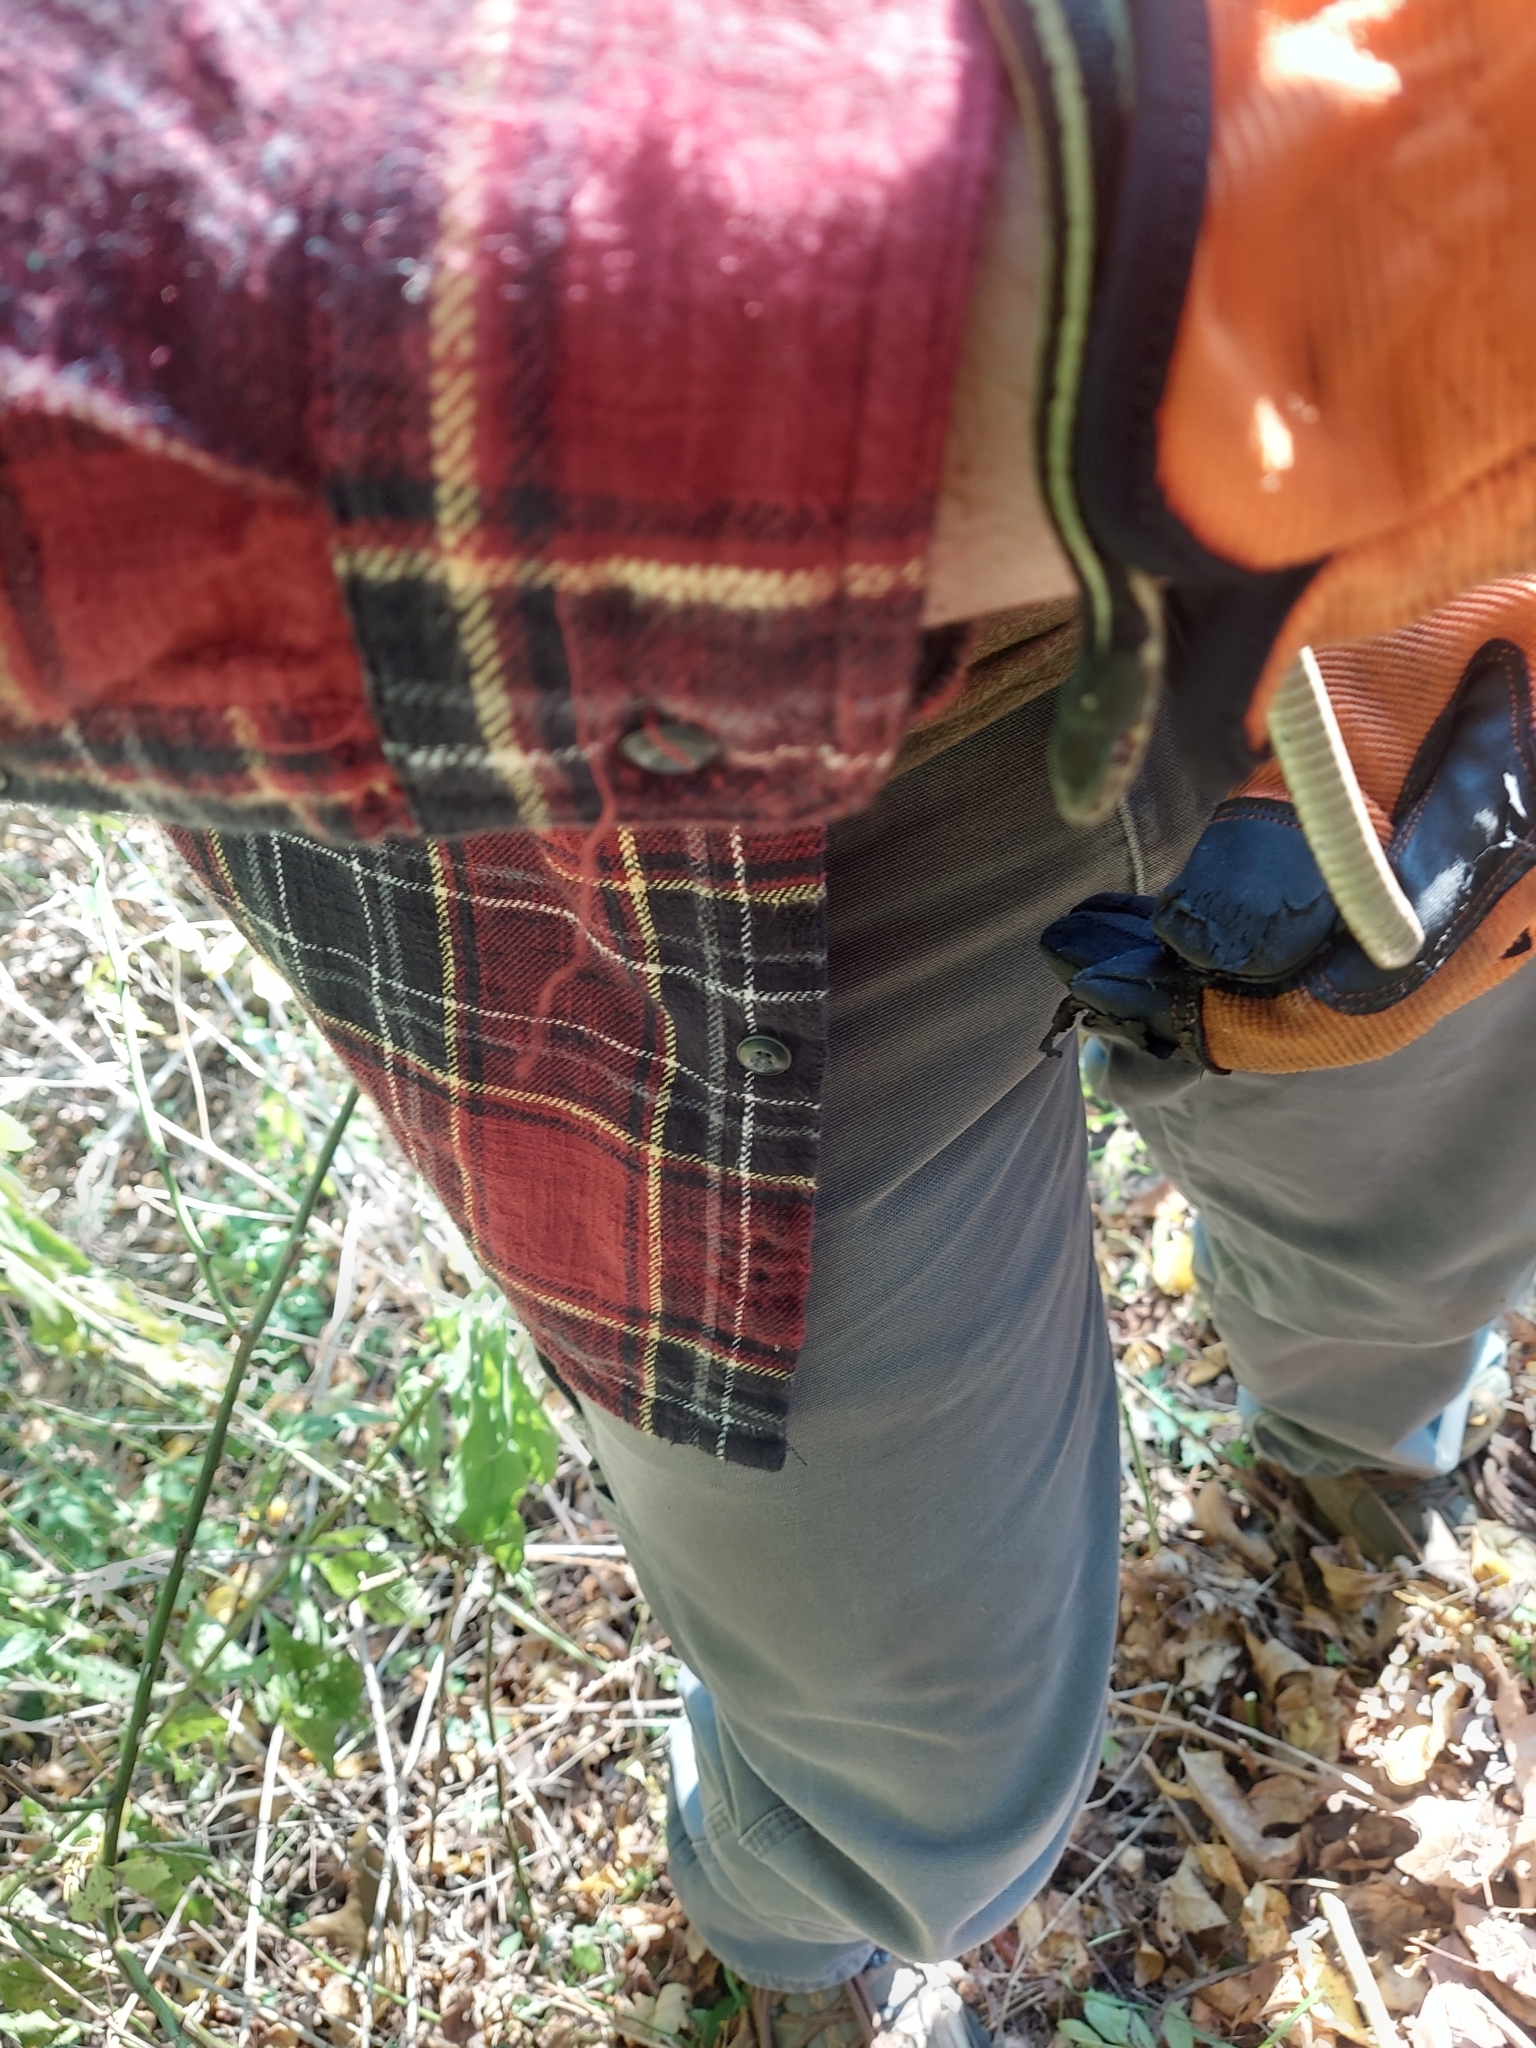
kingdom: Animalia
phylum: Chordata
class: Squamata
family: Colubridae
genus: Thamnophis
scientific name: Thamnophis sirtalis
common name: Common garter snake
